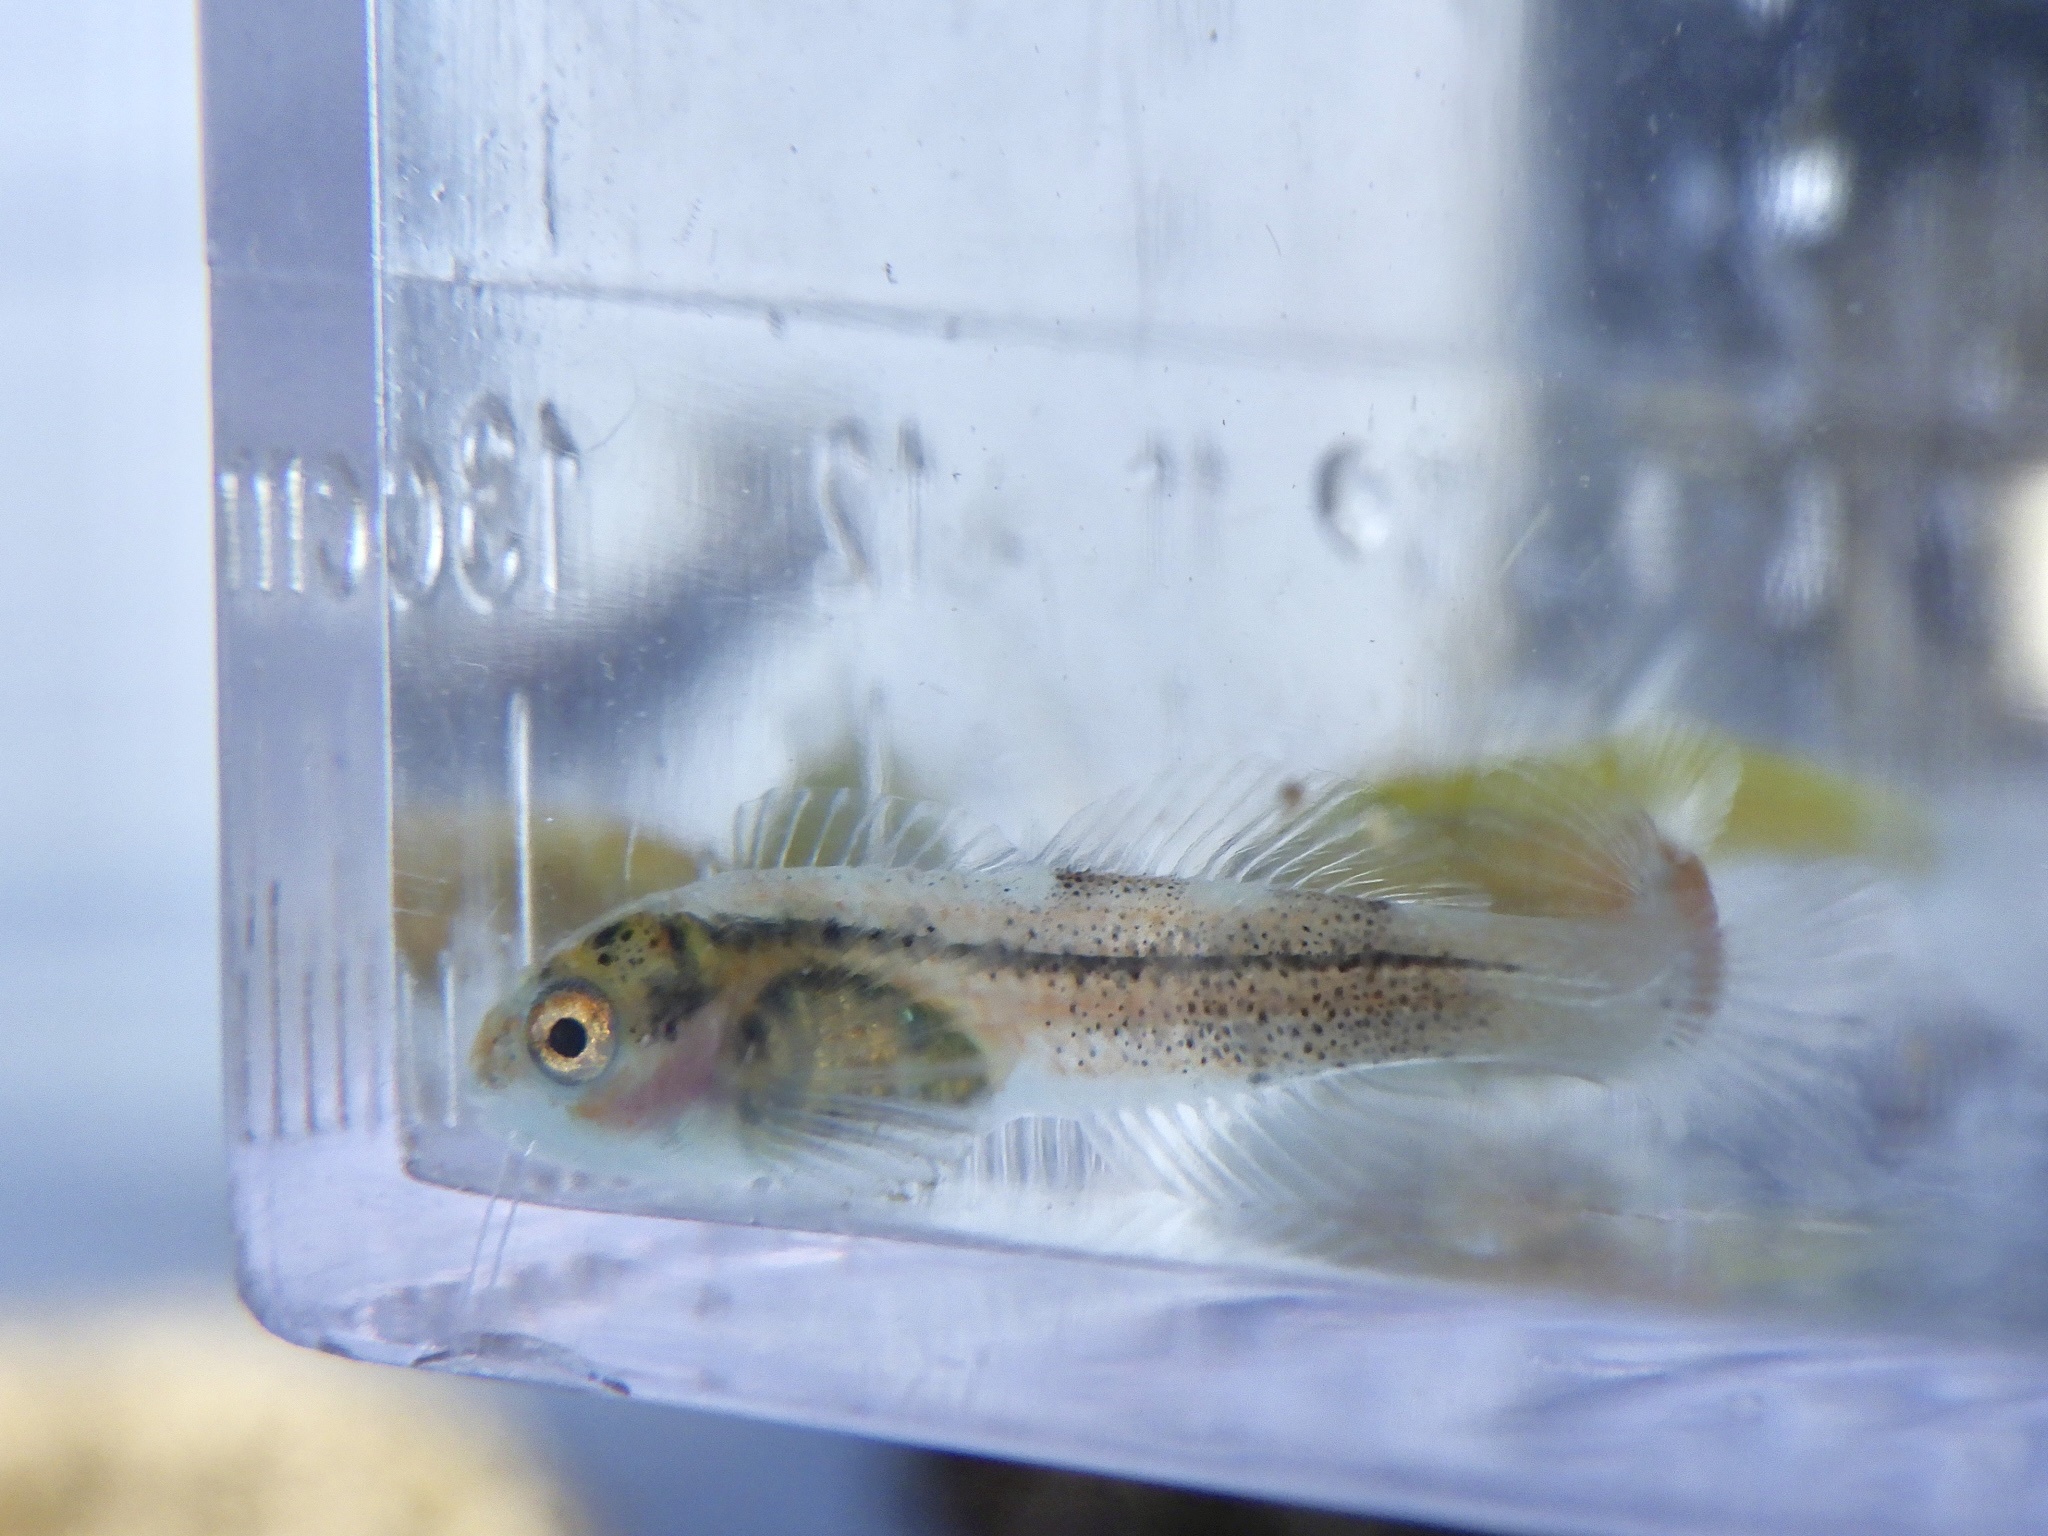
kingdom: Animalia
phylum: Chordata
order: Scorpaeniformes
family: Cottidae
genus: Ocynectes
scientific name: Ocynectes maschalis
